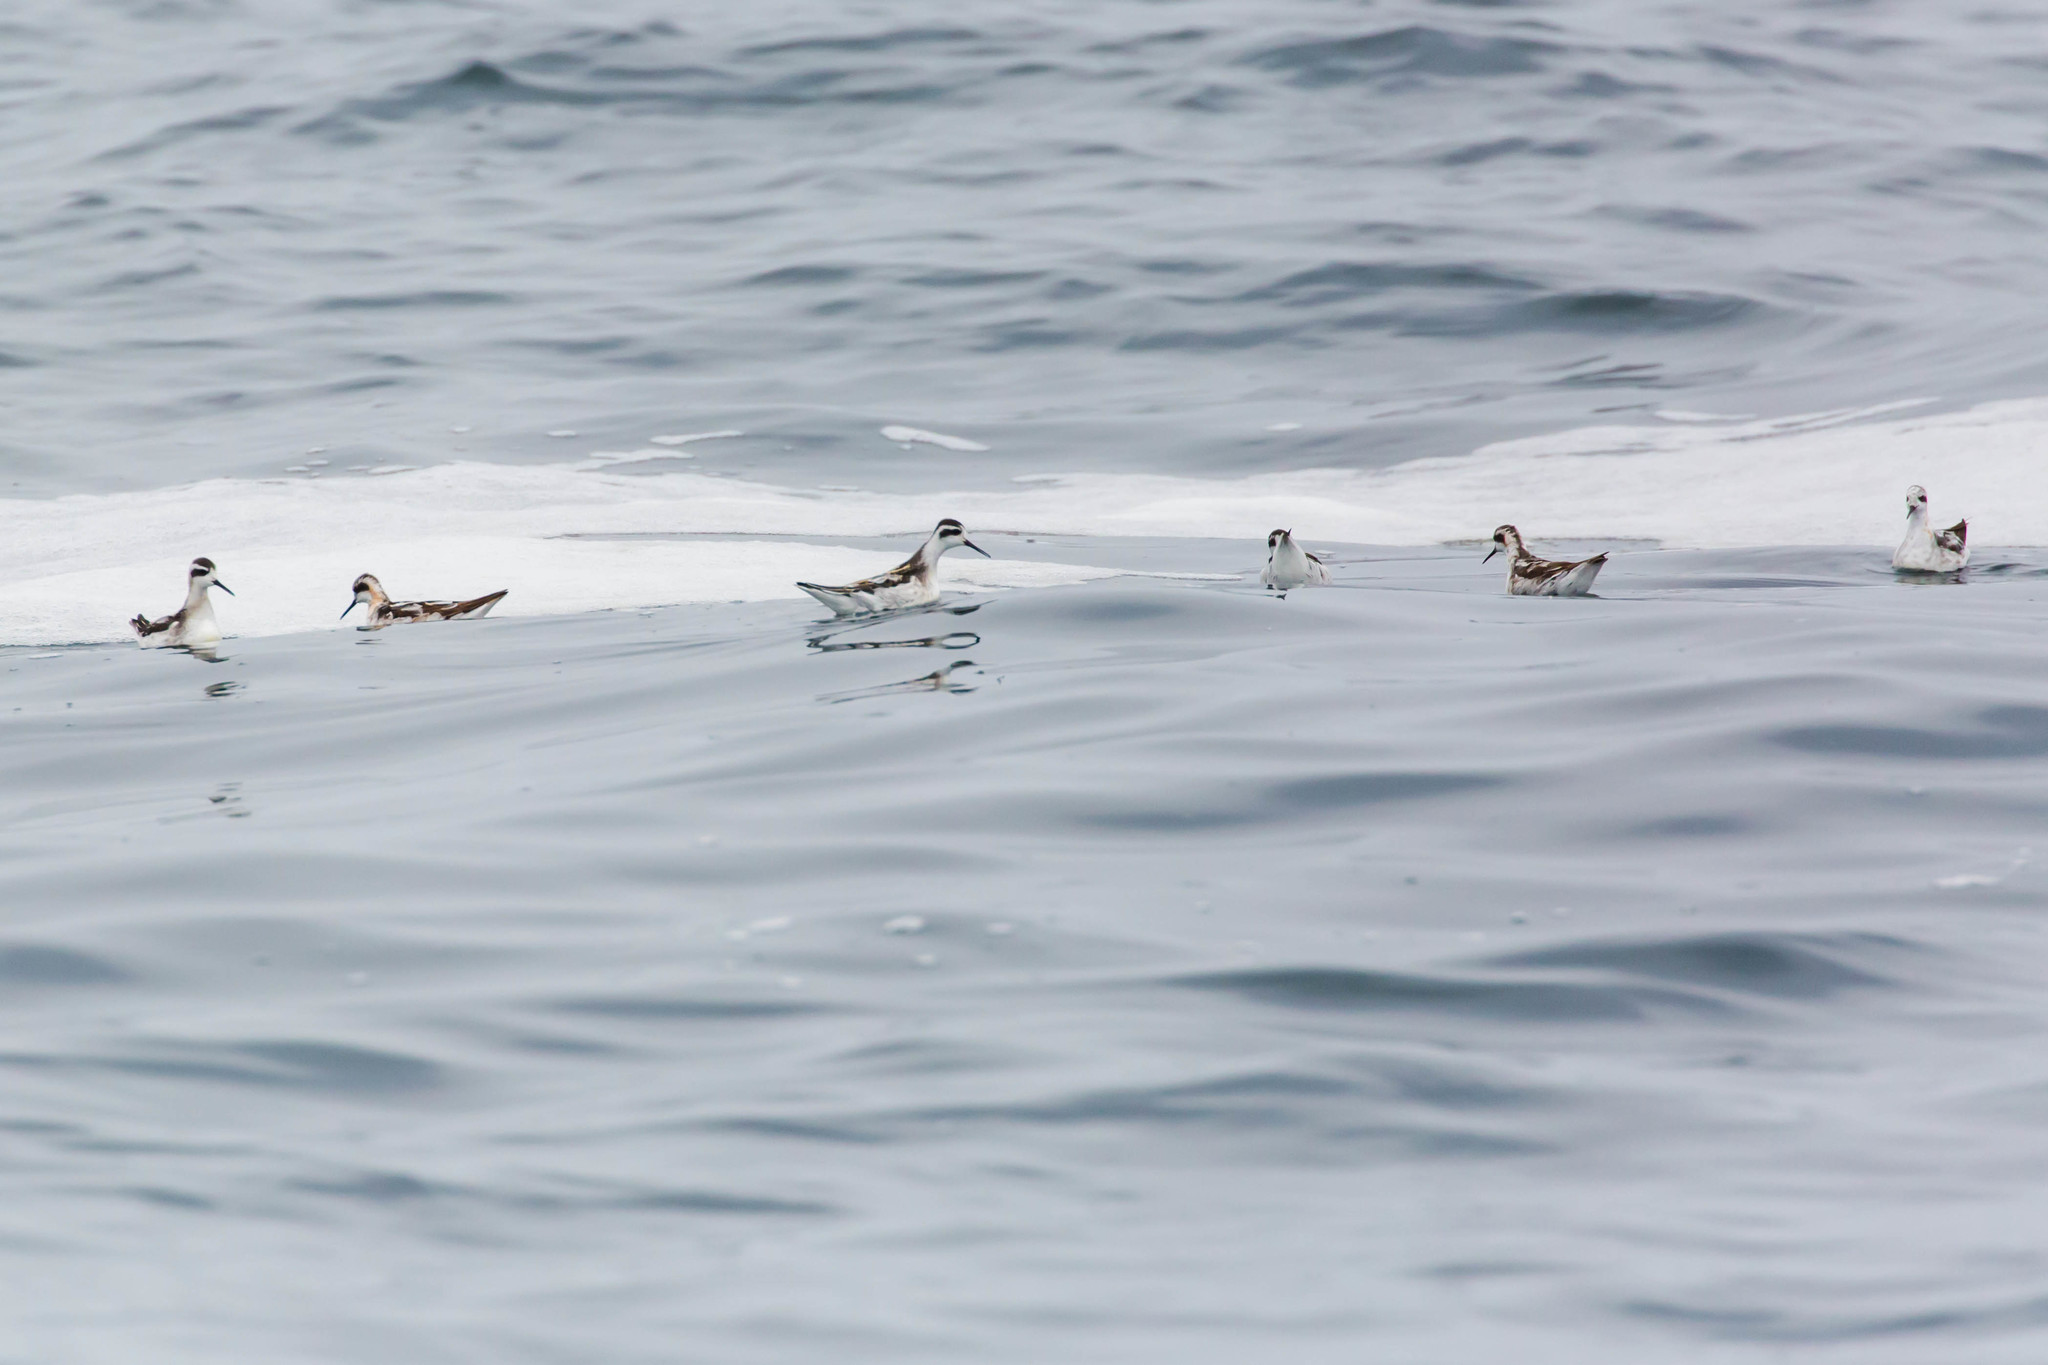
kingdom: Animalia
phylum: Chordata
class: Aves
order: Charadriiformes
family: Scolopacidae
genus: Phalaropus
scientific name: Phalaropus lobatus
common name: Red-necked phalarope
